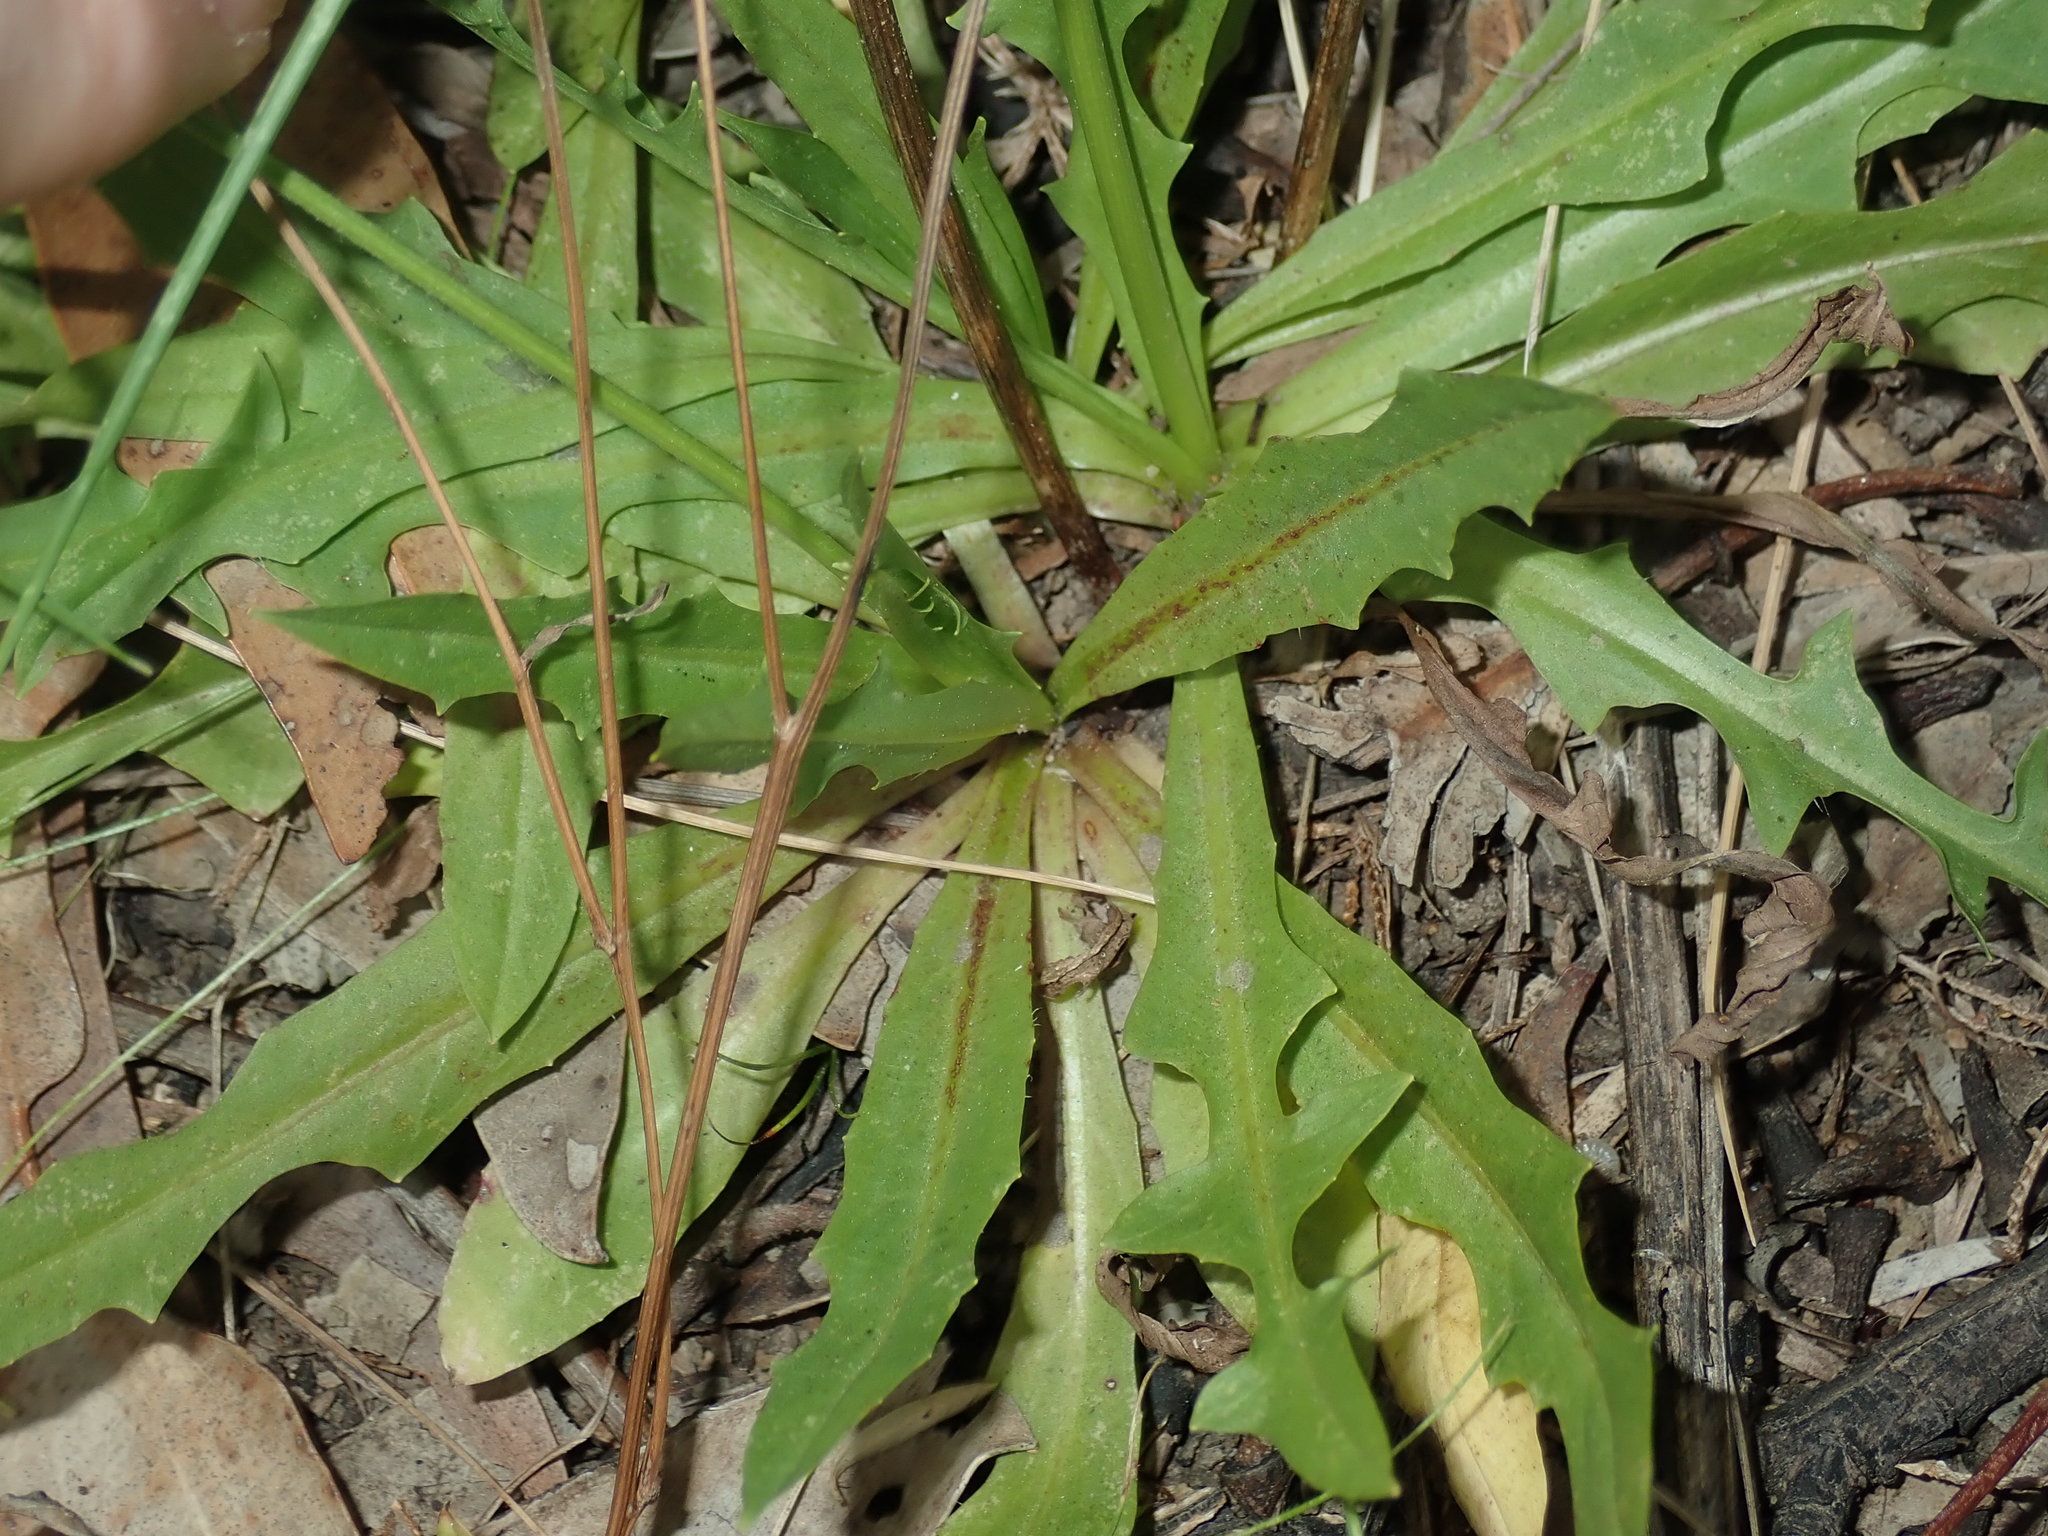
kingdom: Plantae
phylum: Tracheophyta
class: Magnoliopsida
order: Asterales
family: Asteraceae
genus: Hypochaeris
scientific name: Hypochaeris albiflora
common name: White flatweed
